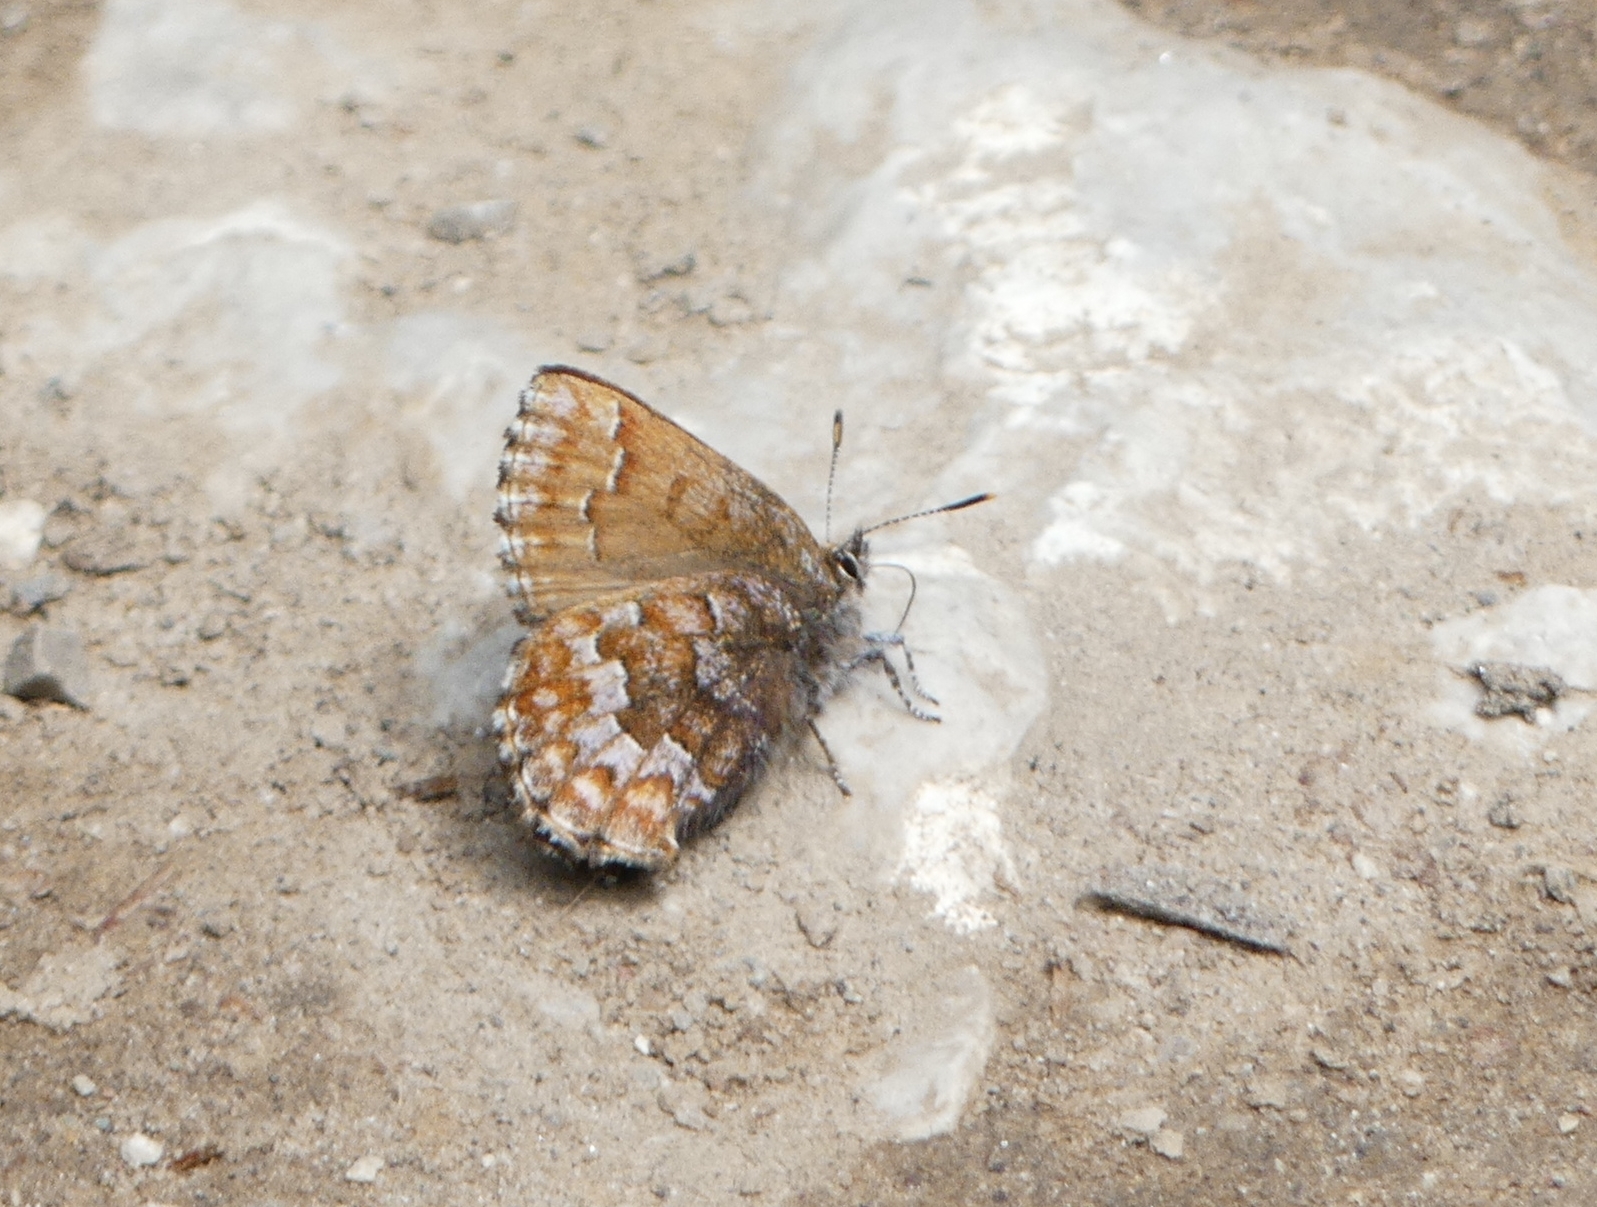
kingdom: Animalia
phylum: Arthropoda
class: Insecta
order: Lepidoptera
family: Lycaenidae
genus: Incisalia
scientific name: Incisalia niphon
